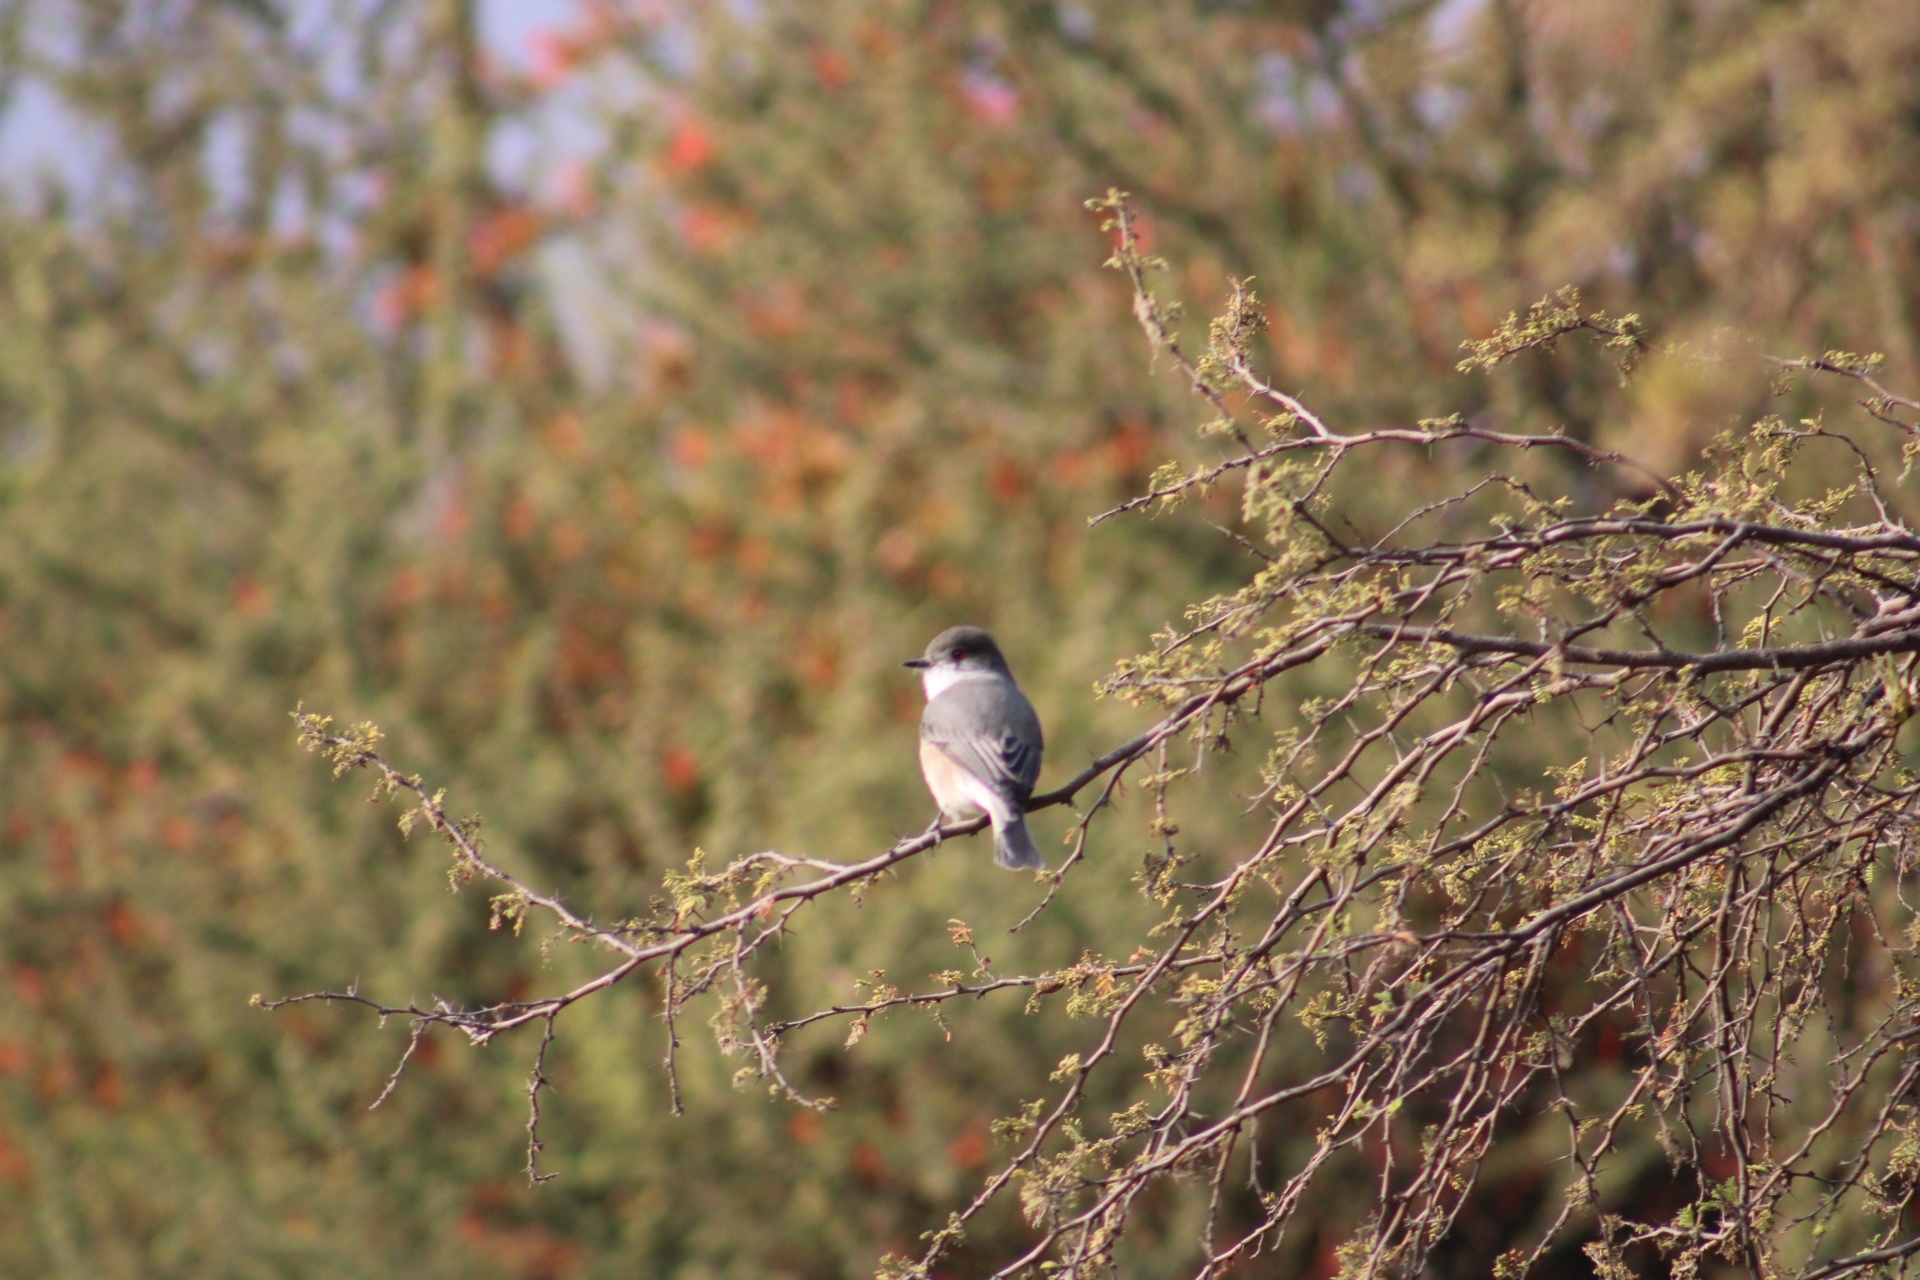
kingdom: Animalia
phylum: Chordata
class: Aves
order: Passeriformes
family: Tyrannidae
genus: Xolmis
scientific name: Xolmis pyrope
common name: Fire-eyed diucon
